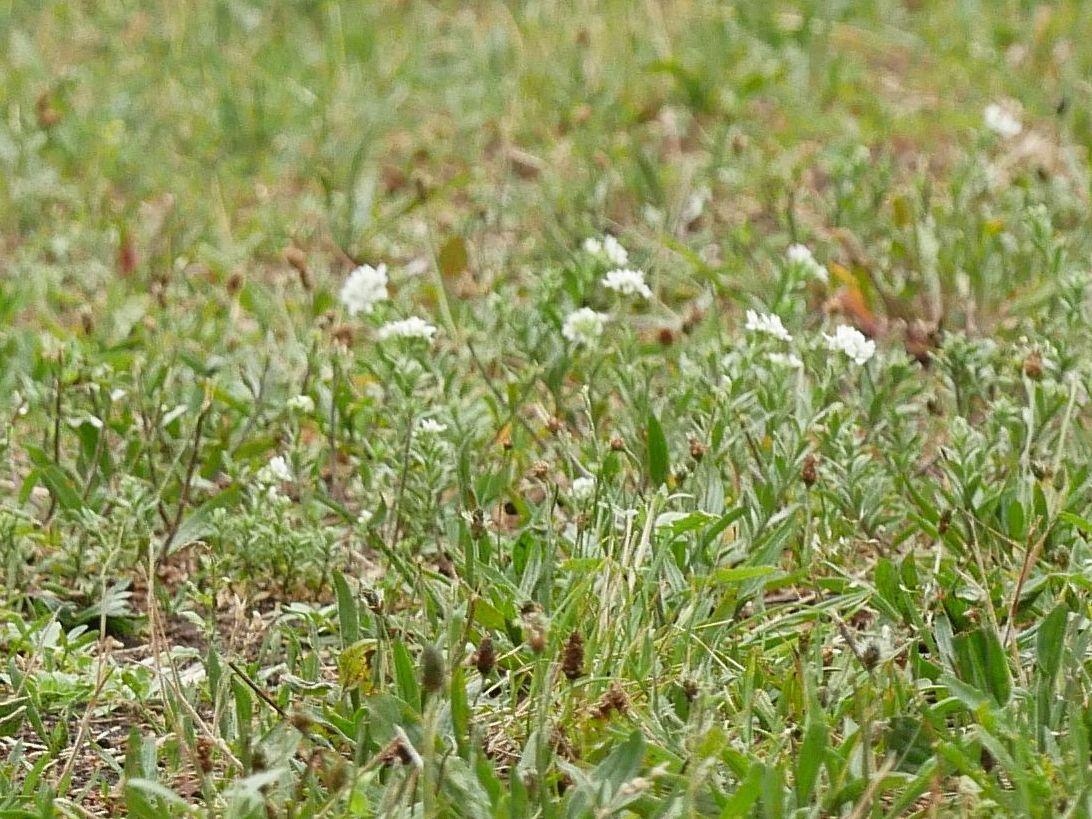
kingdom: Plantae
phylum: Tracheophyta
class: Magnoliopsida
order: Brassicales
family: Brassicaceae
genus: Berteroa
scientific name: Berteroa incana
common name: Hoary alison
